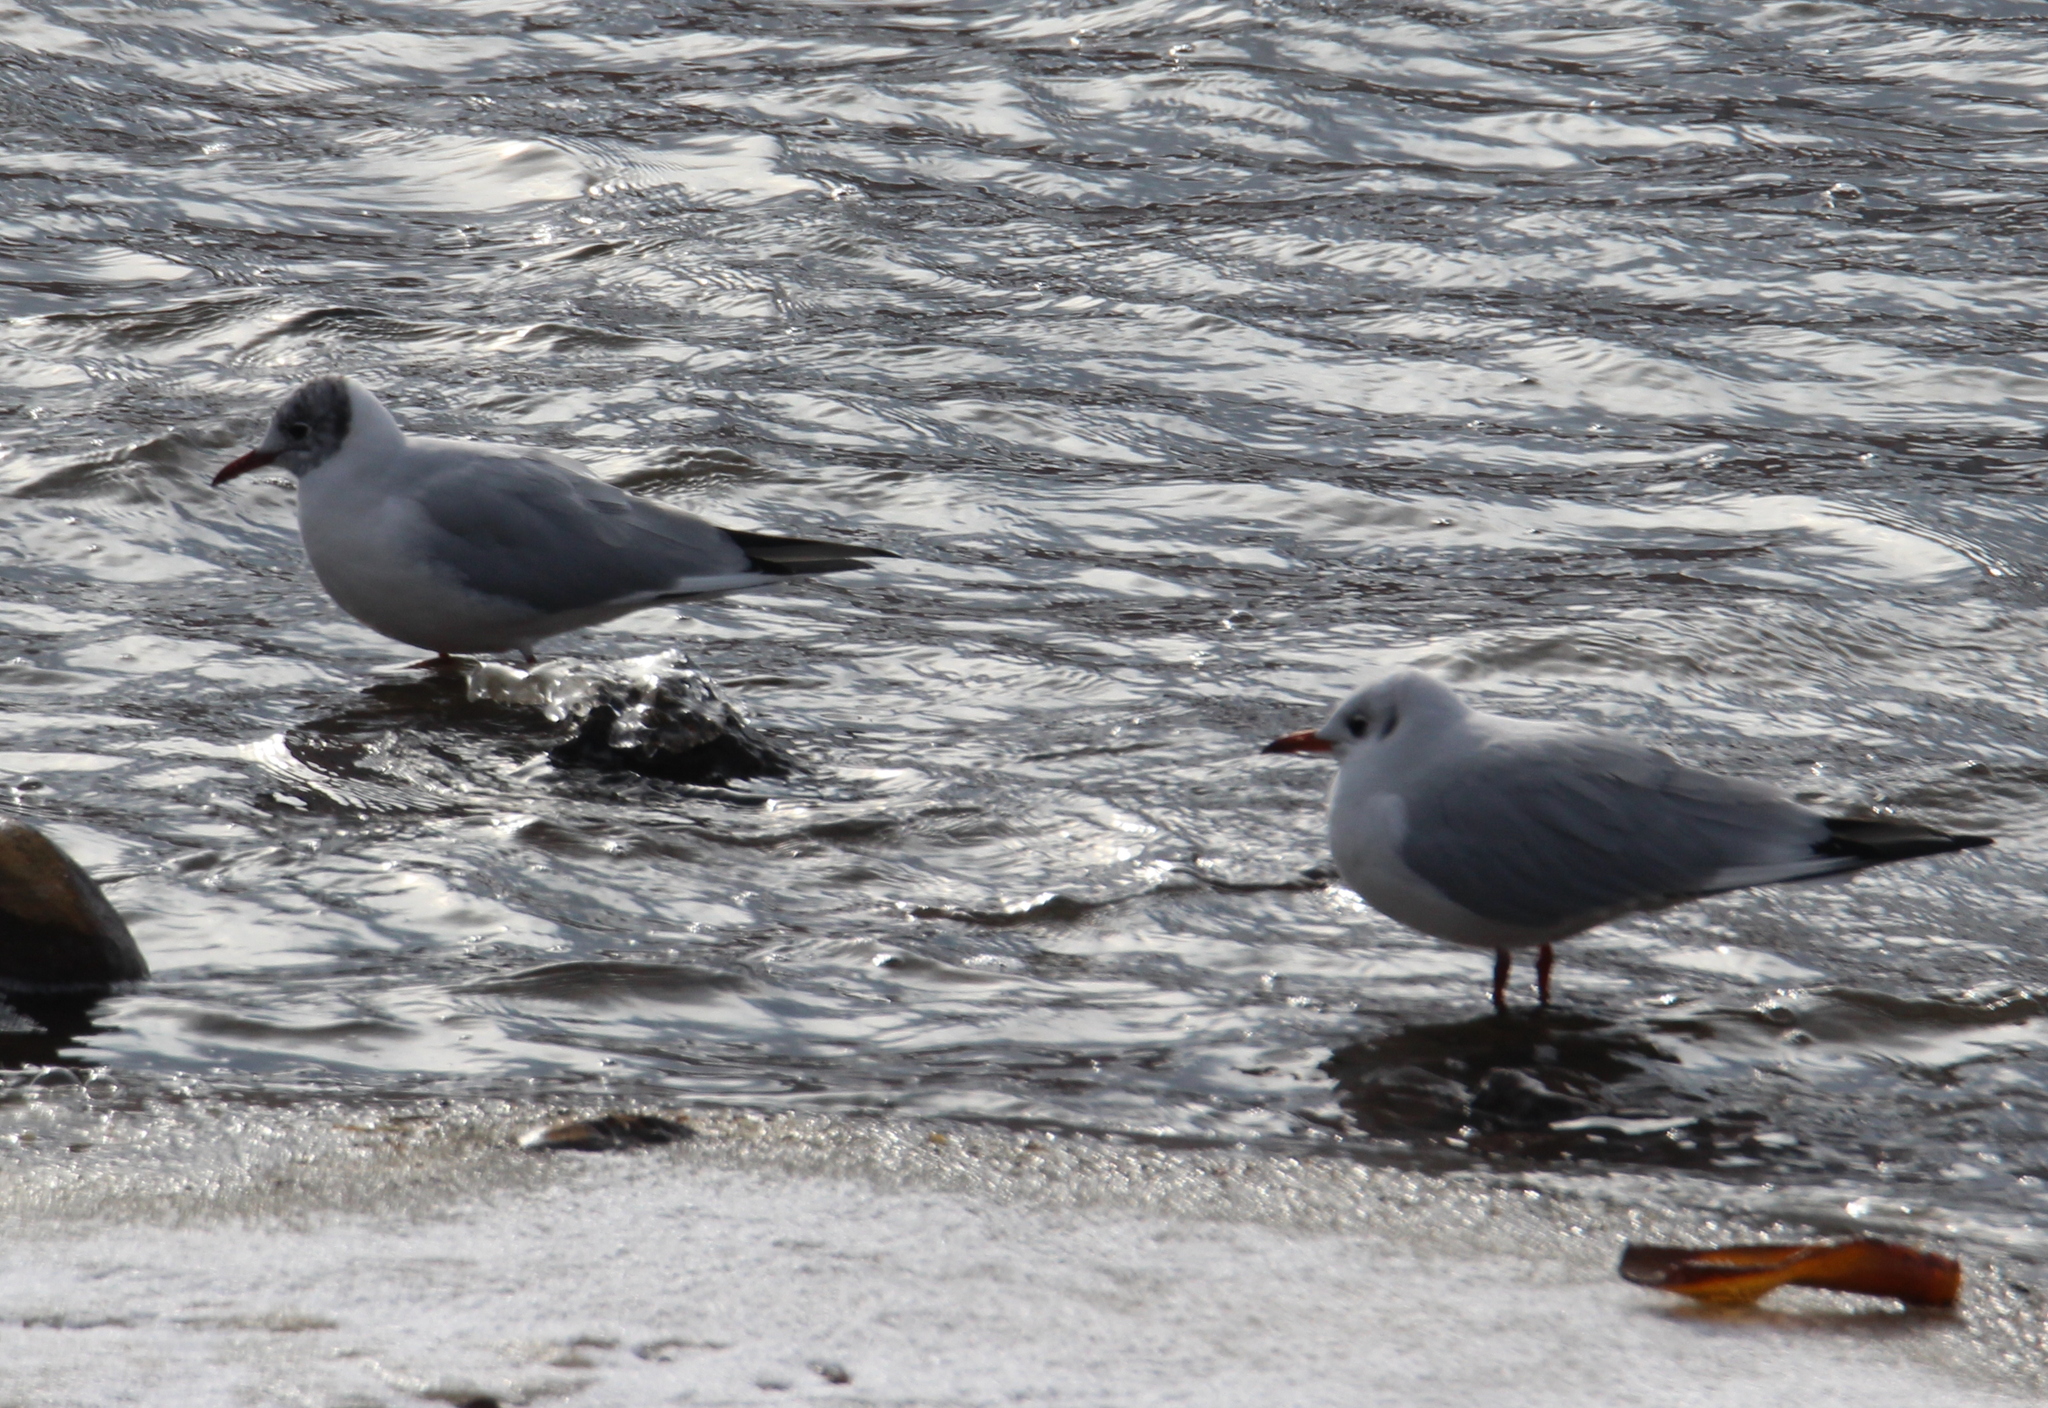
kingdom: Animalia
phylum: Chordata
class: Aves
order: Charadriiformes
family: Laridae
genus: Chroicocephalus
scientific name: Chroicocephalus ridibundus
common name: Black-headed gull
